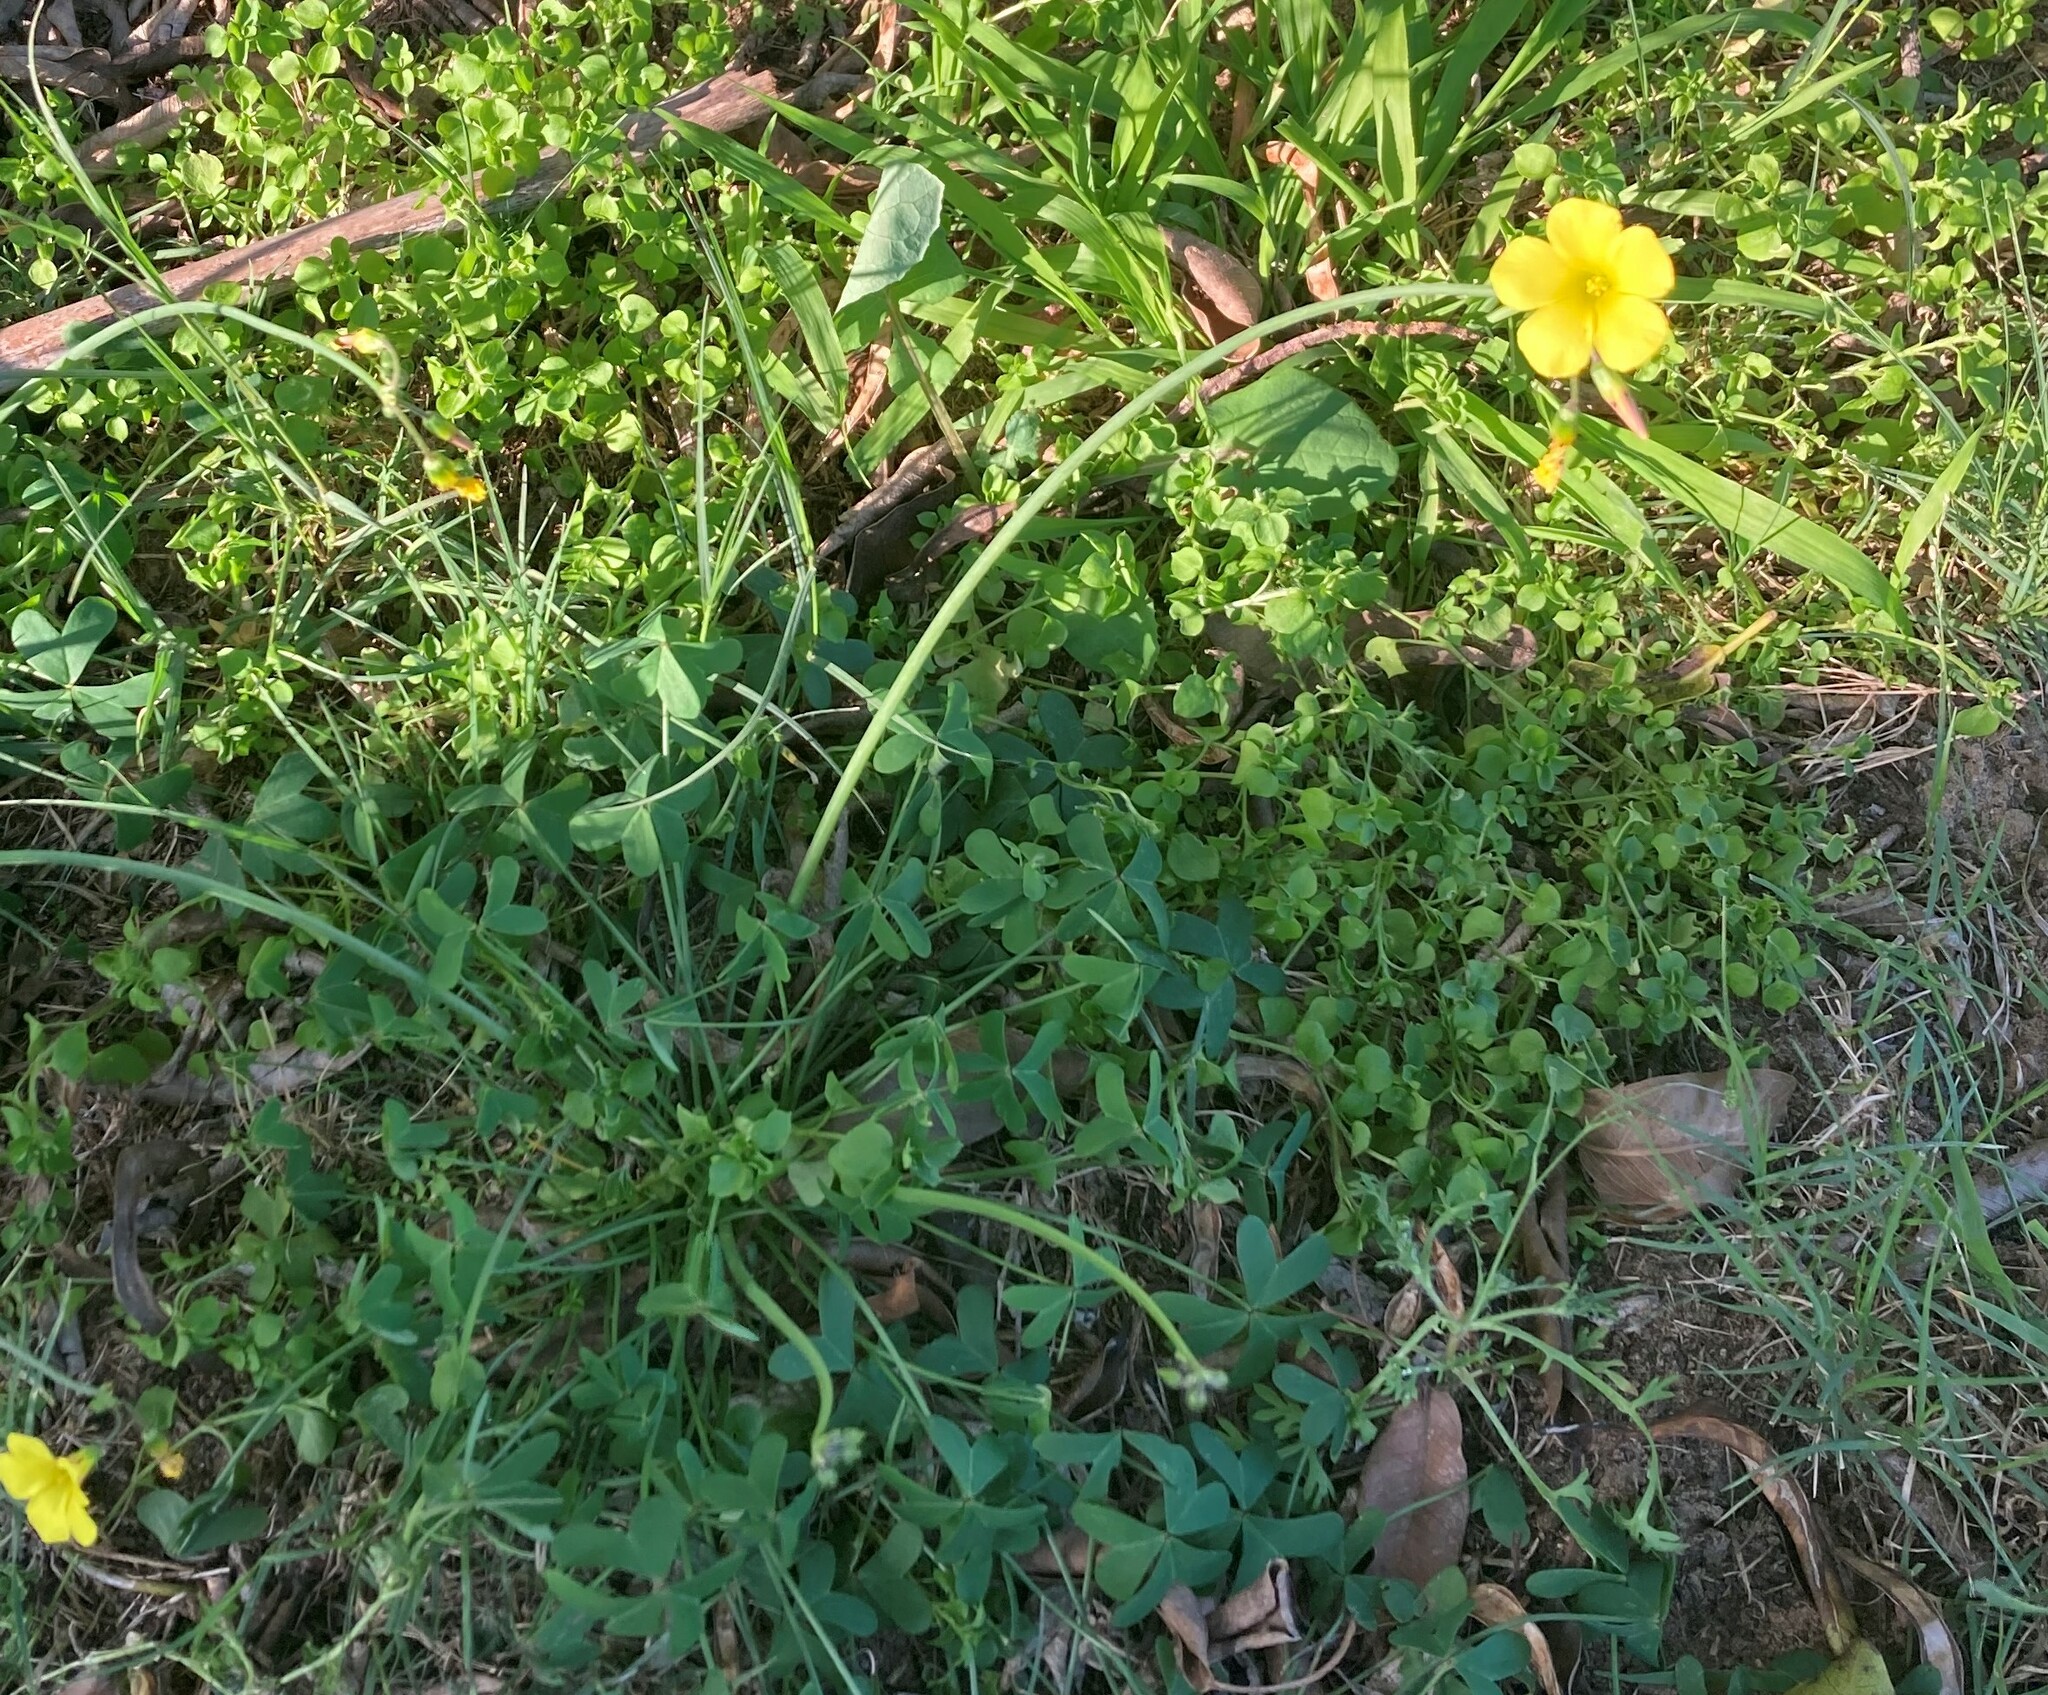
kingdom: Plantae
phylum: Tracheophyta
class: Magnoliopsida
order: Oxalidales
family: Oxalidaceae
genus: Oxalis
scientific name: Oxalis pes-caprae
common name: Bermuda-buttercup
